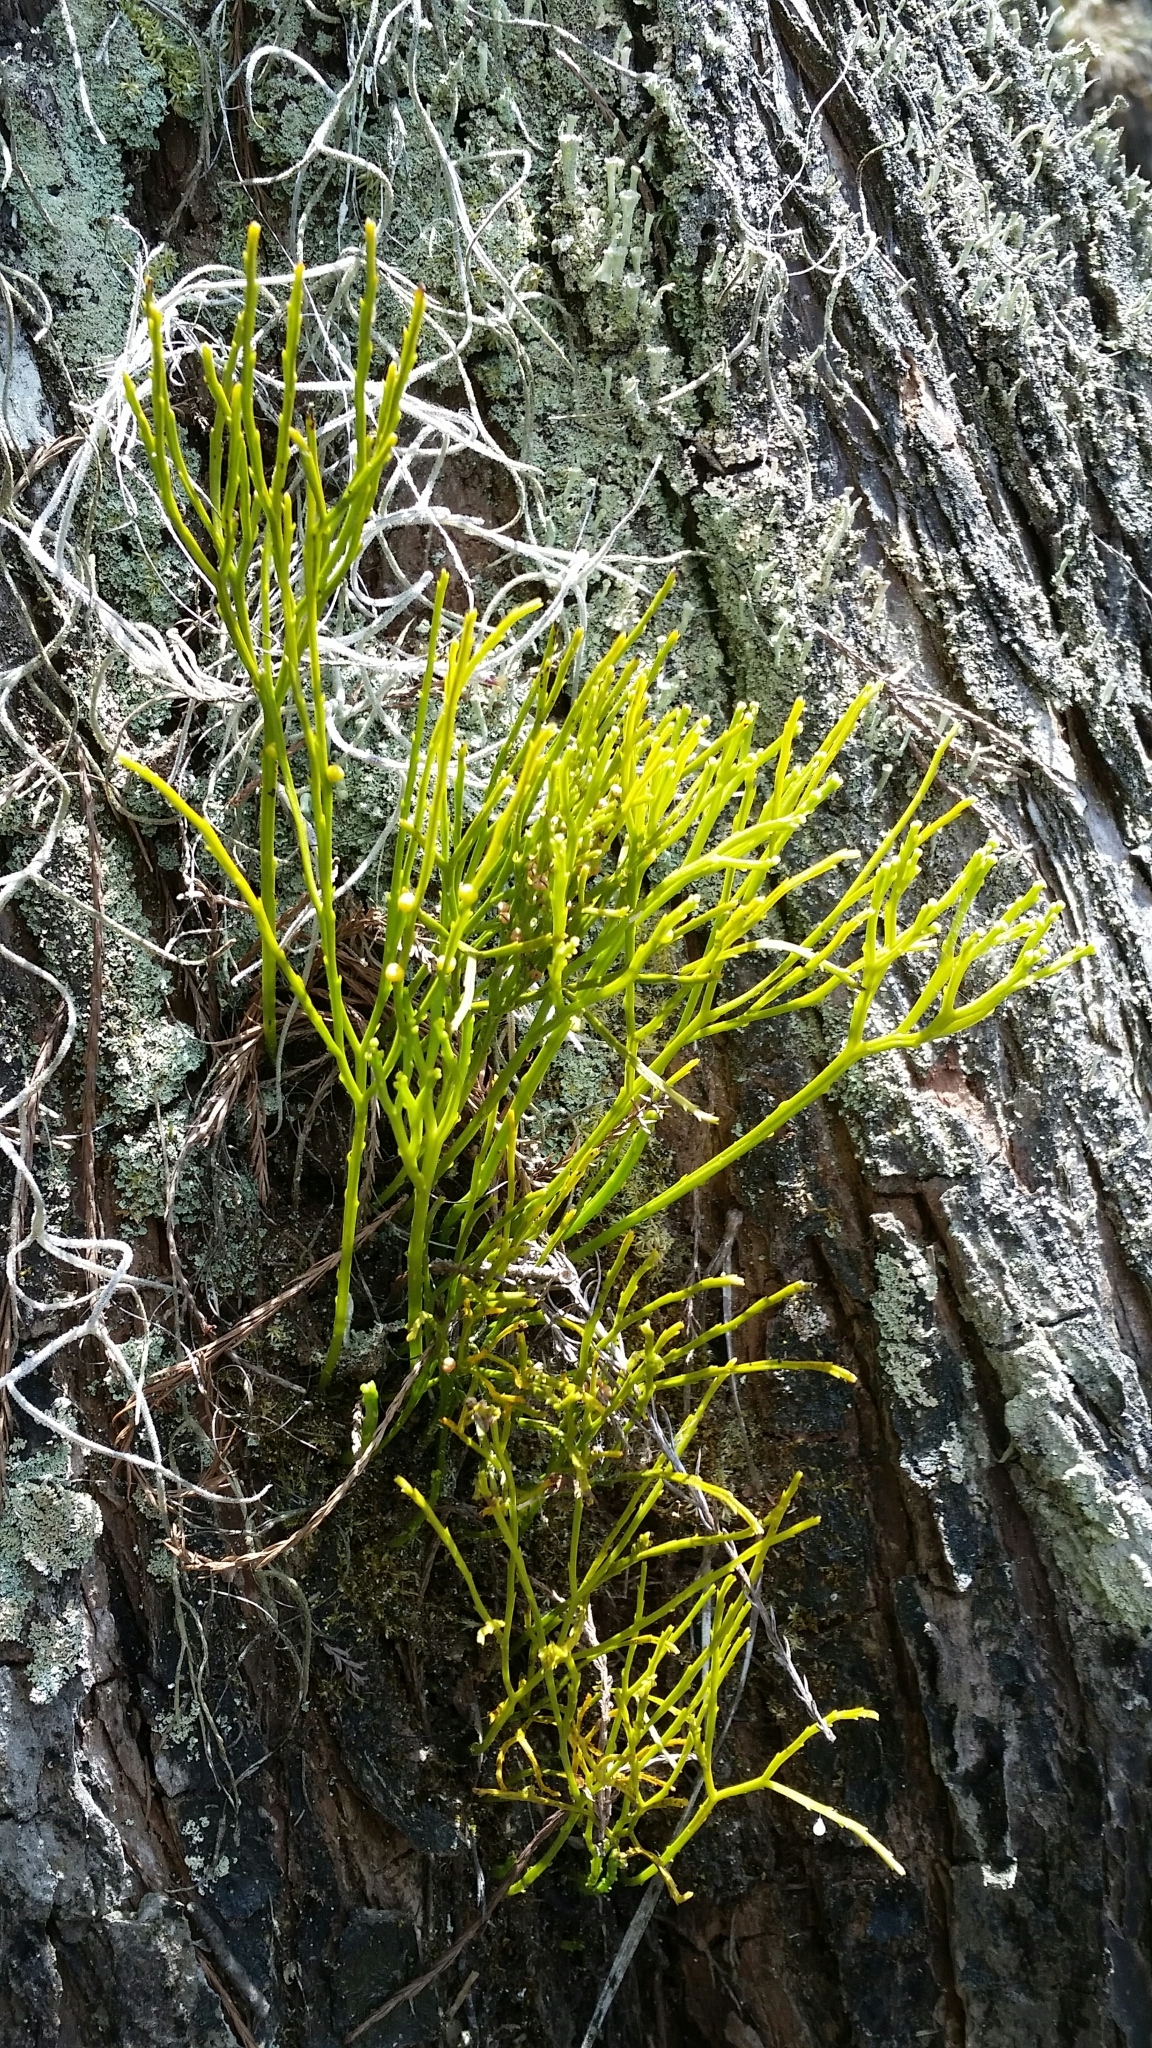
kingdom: Plantae
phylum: Tracheophyta
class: Polypodiopsida
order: Psilotales
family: Psilotaceae
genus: Psilotum
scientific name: Psilotum nudum
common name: Skeleton fork fern
